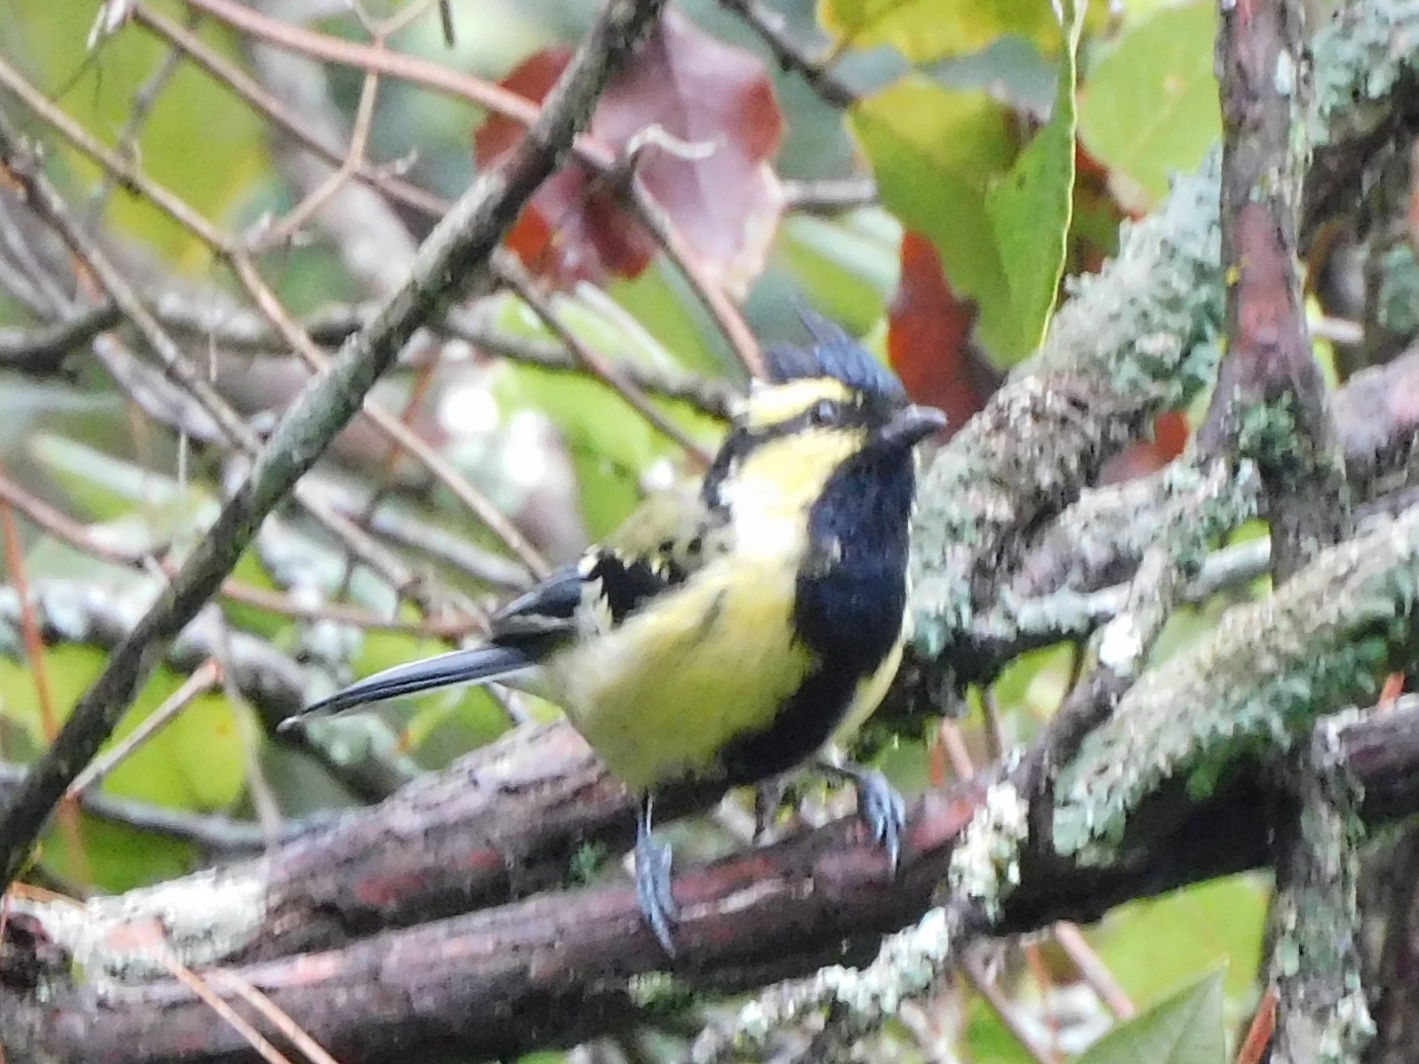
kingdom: Animalia
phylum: Chordata
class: Aves
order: Passeriformes
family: Paridae
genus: Parus
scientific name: Parus xanthogenys
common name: Black-lored tit
